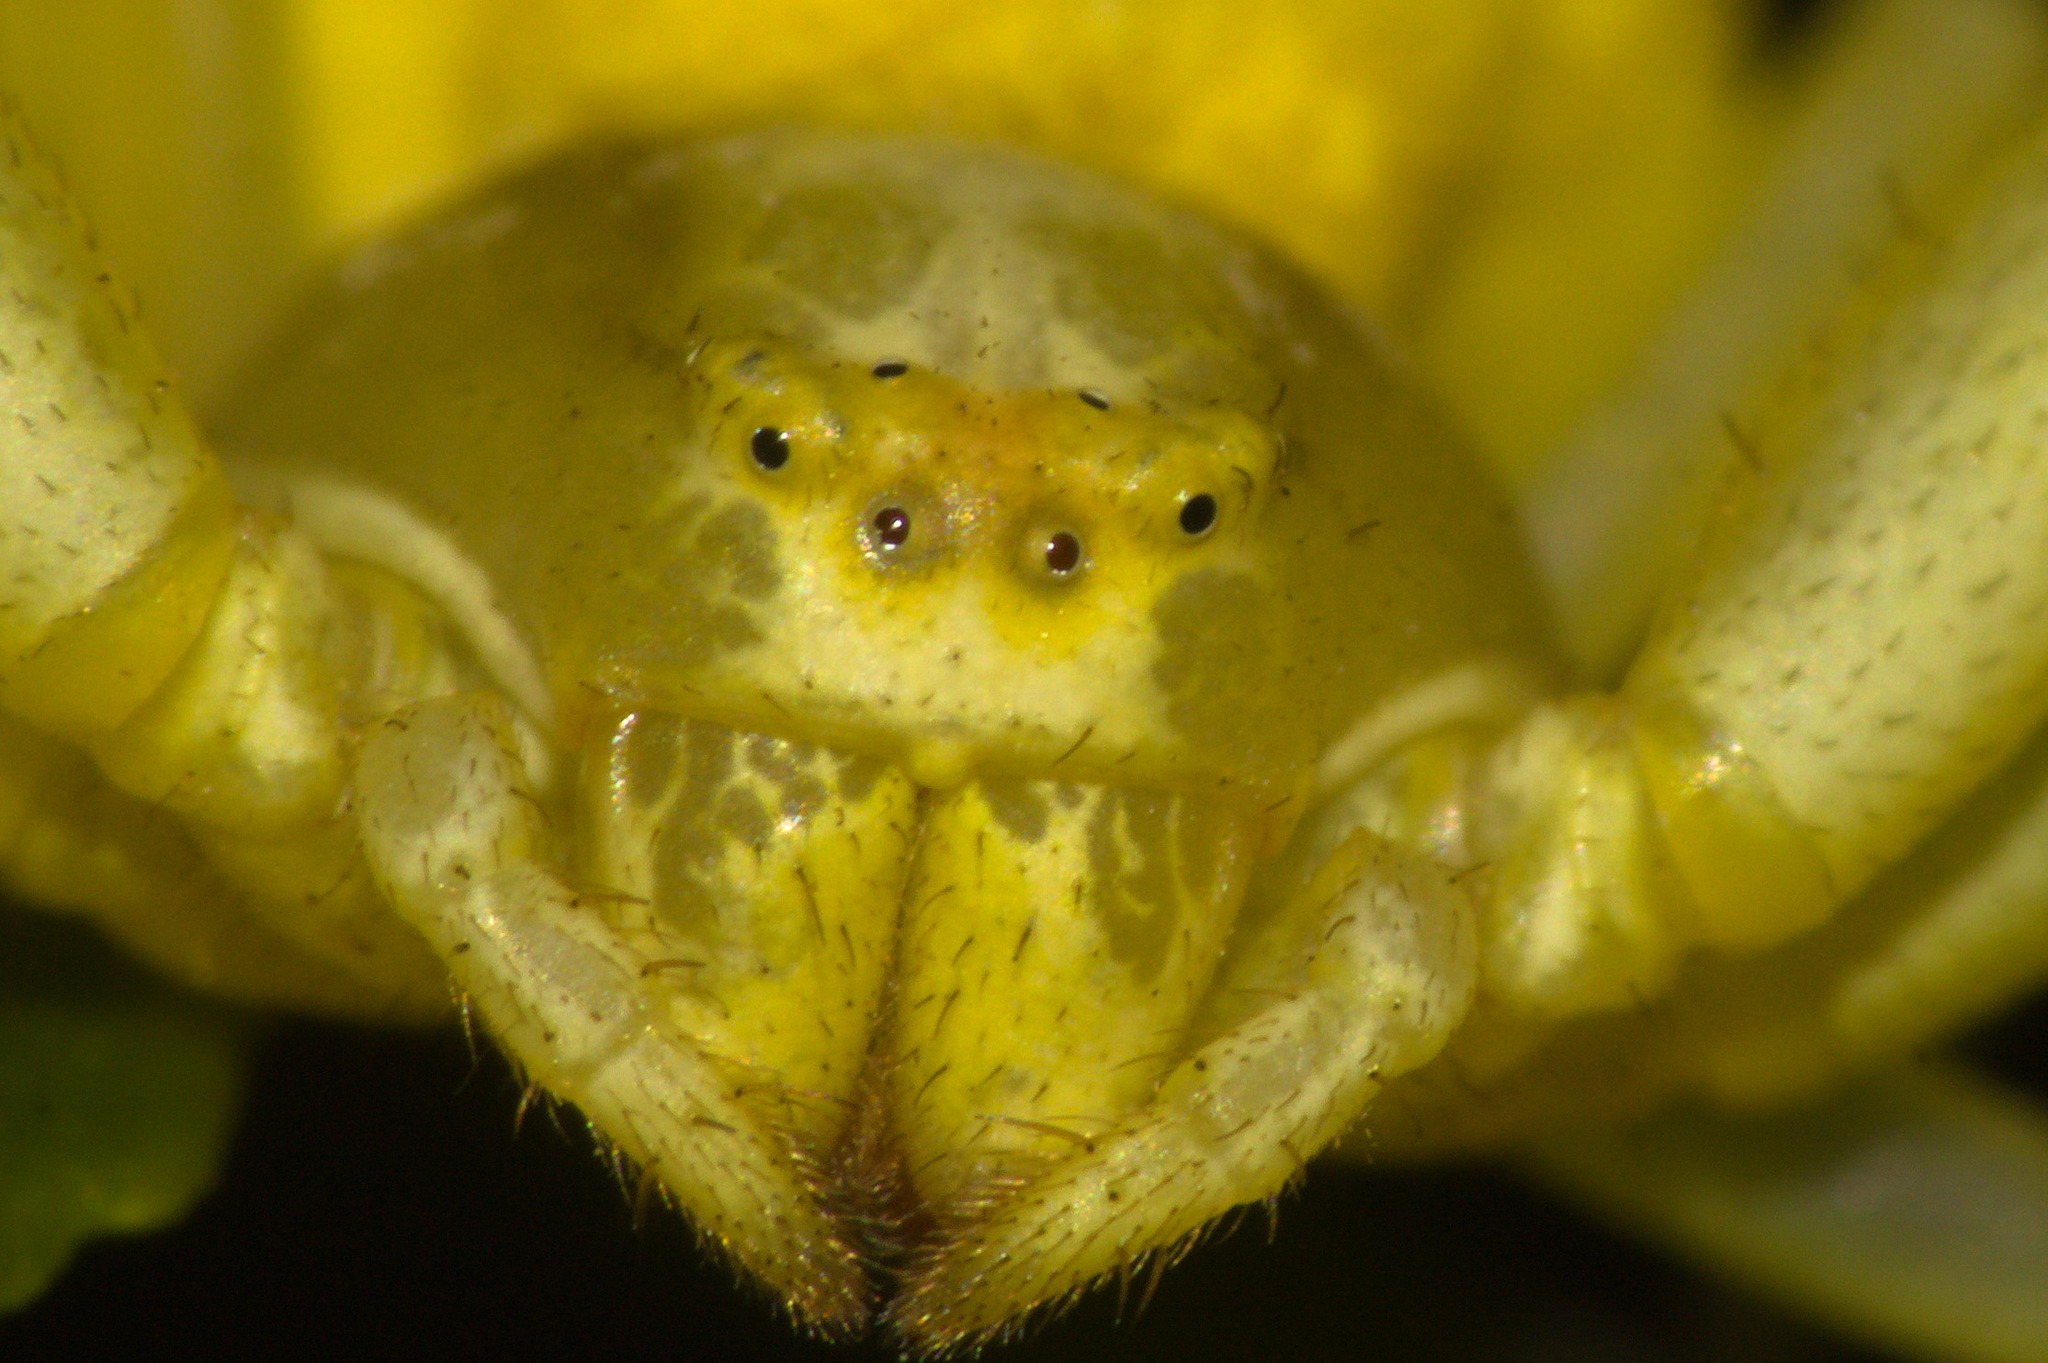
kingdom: Animalia
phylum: Arthropoda
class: Arachnida
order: Araneae
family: Thomisidae
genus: Misumena
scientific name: Misumena vatia
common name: Goldenrod crab spider
